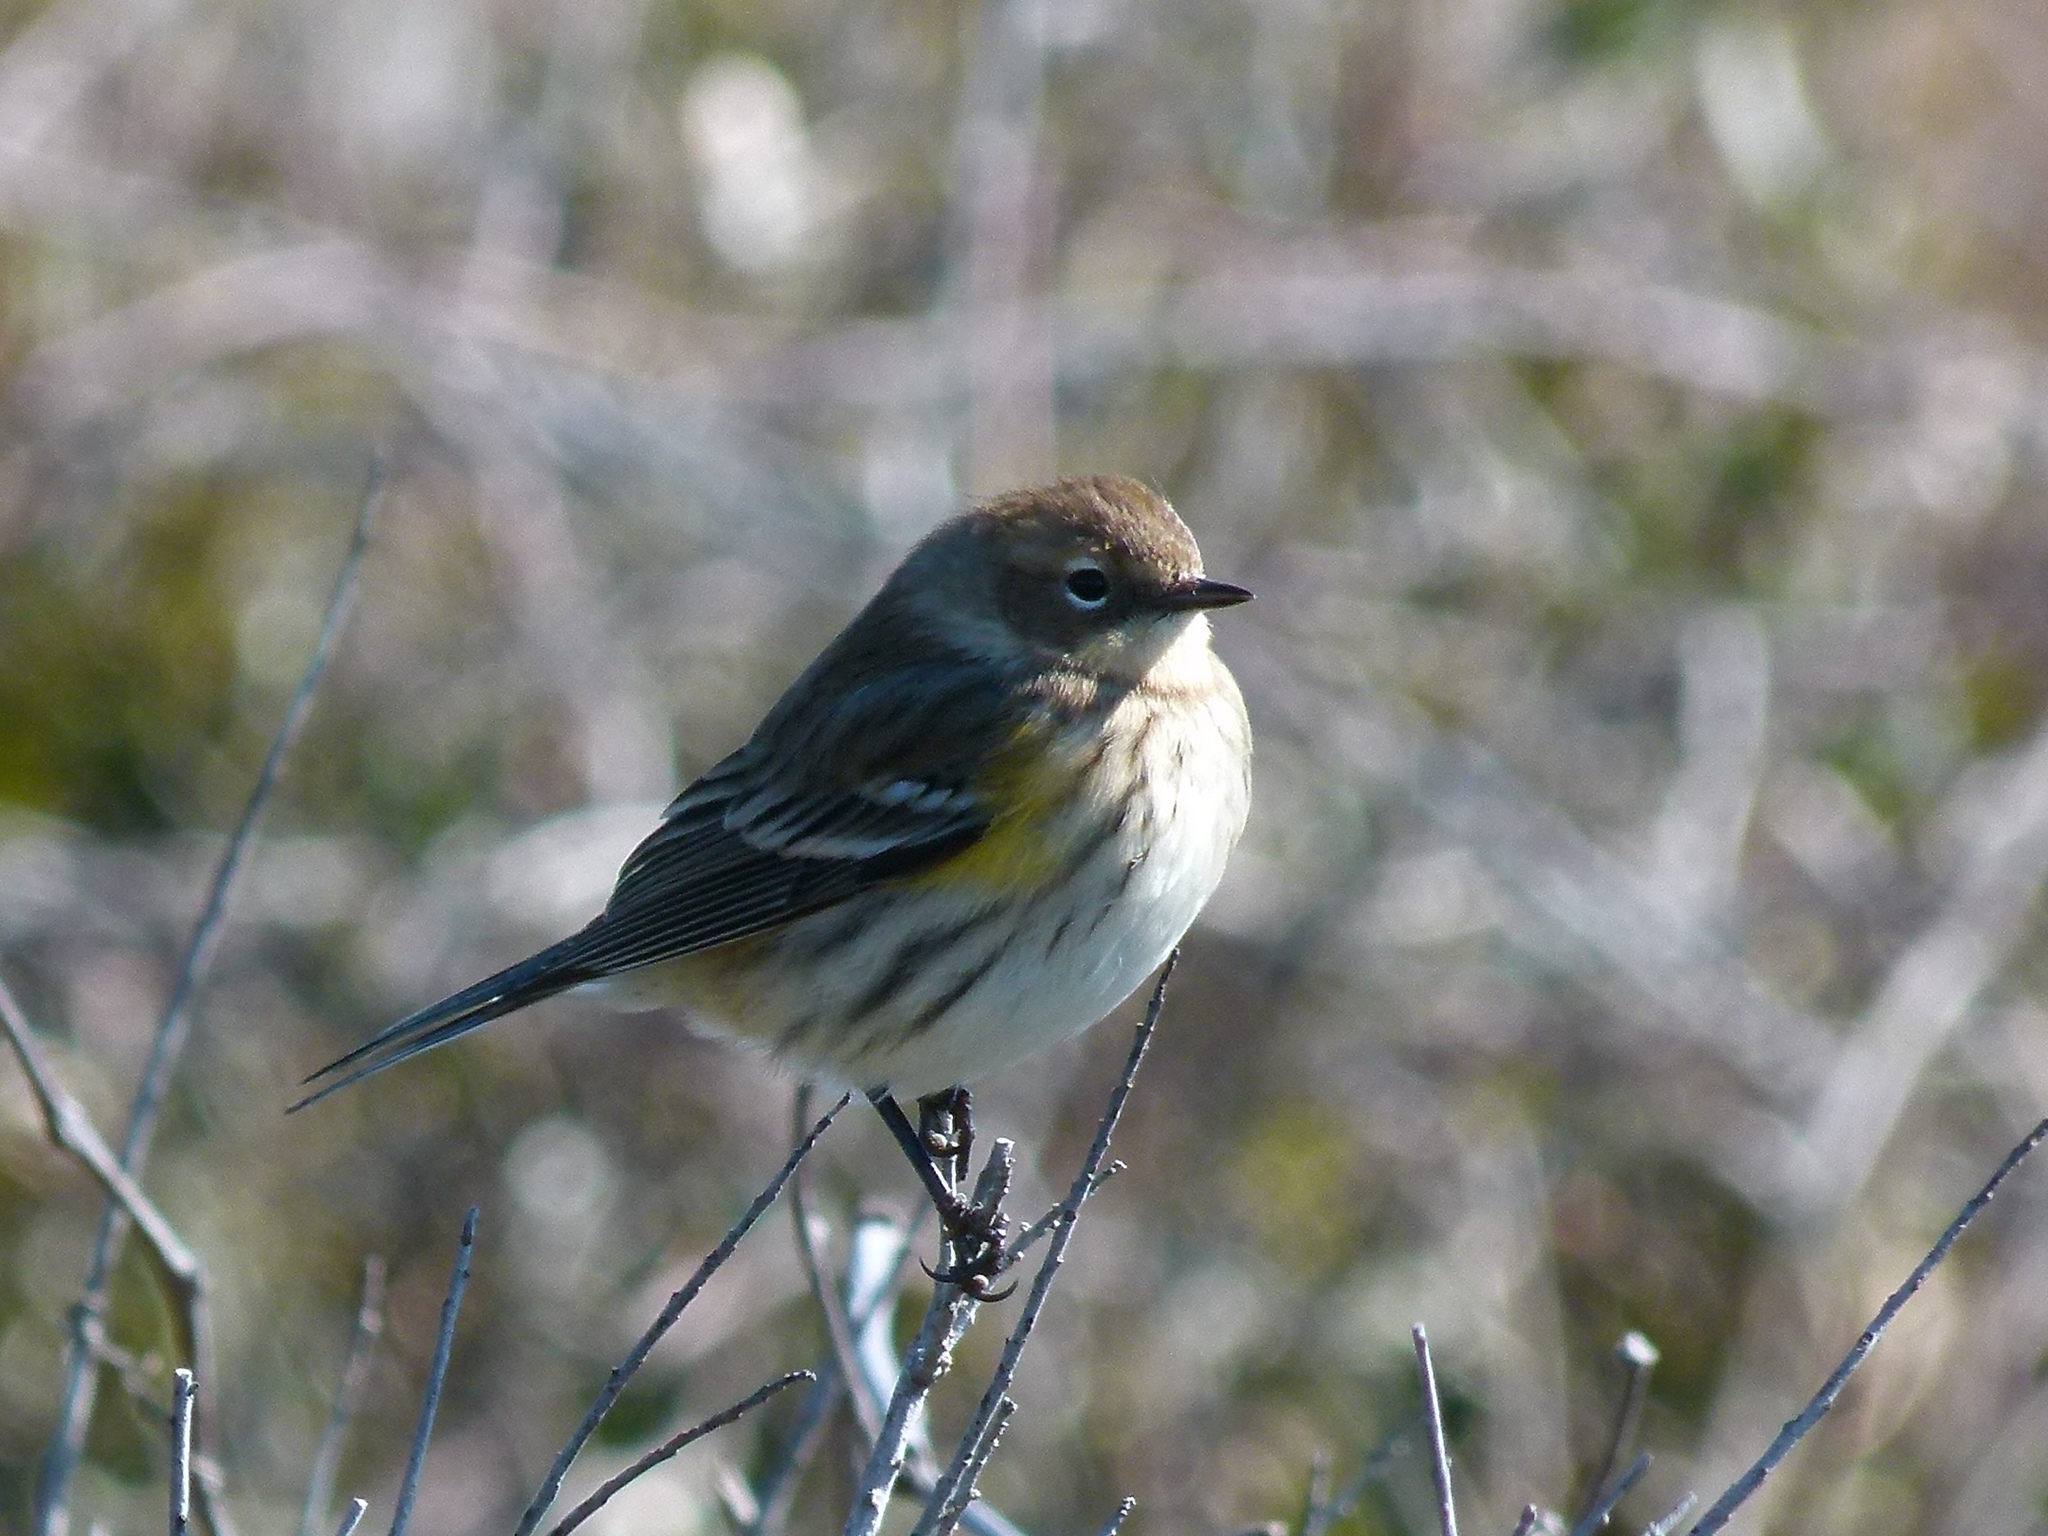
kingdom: Animalia
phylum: Chordata
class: Aves
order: Passeriformes
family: Parulidae
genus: Setophaga
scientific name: Setophaga coronata
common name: Myrtle warbler
